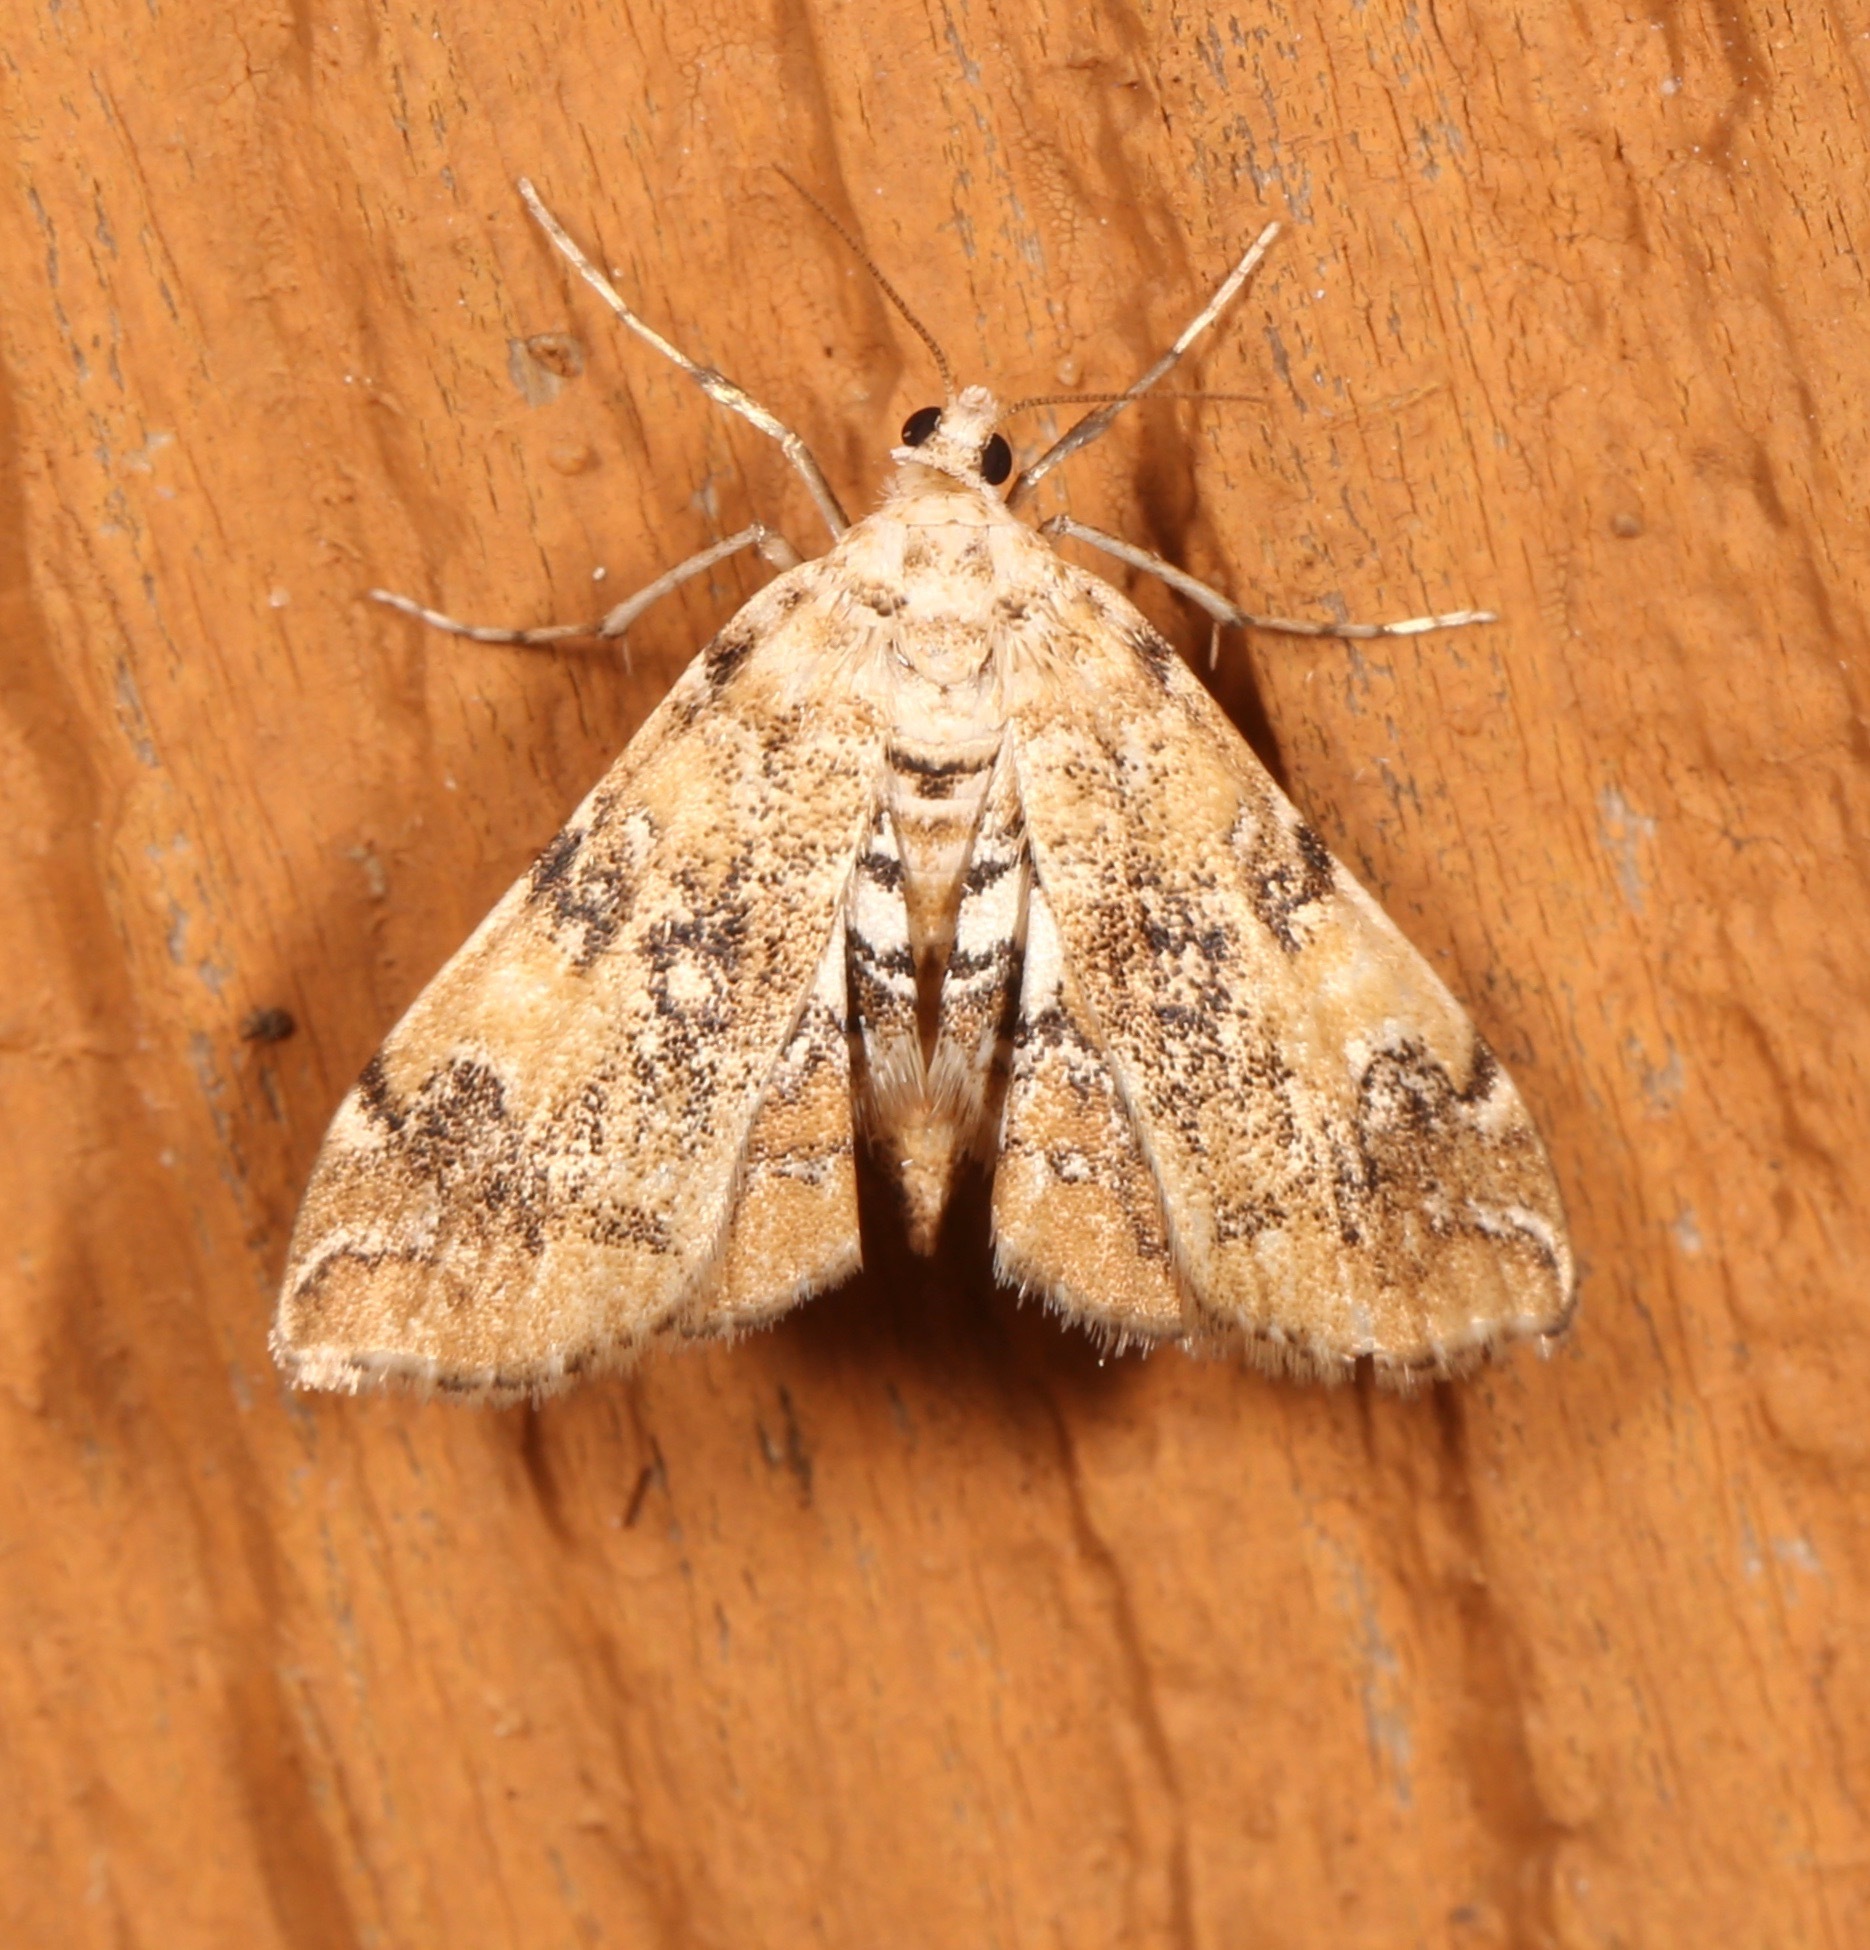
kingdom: Animalia
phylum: Arthropoda
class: Insecta
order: Lepidoptera
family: Crambidae
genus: Elophila
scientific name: Elophila faulalis
